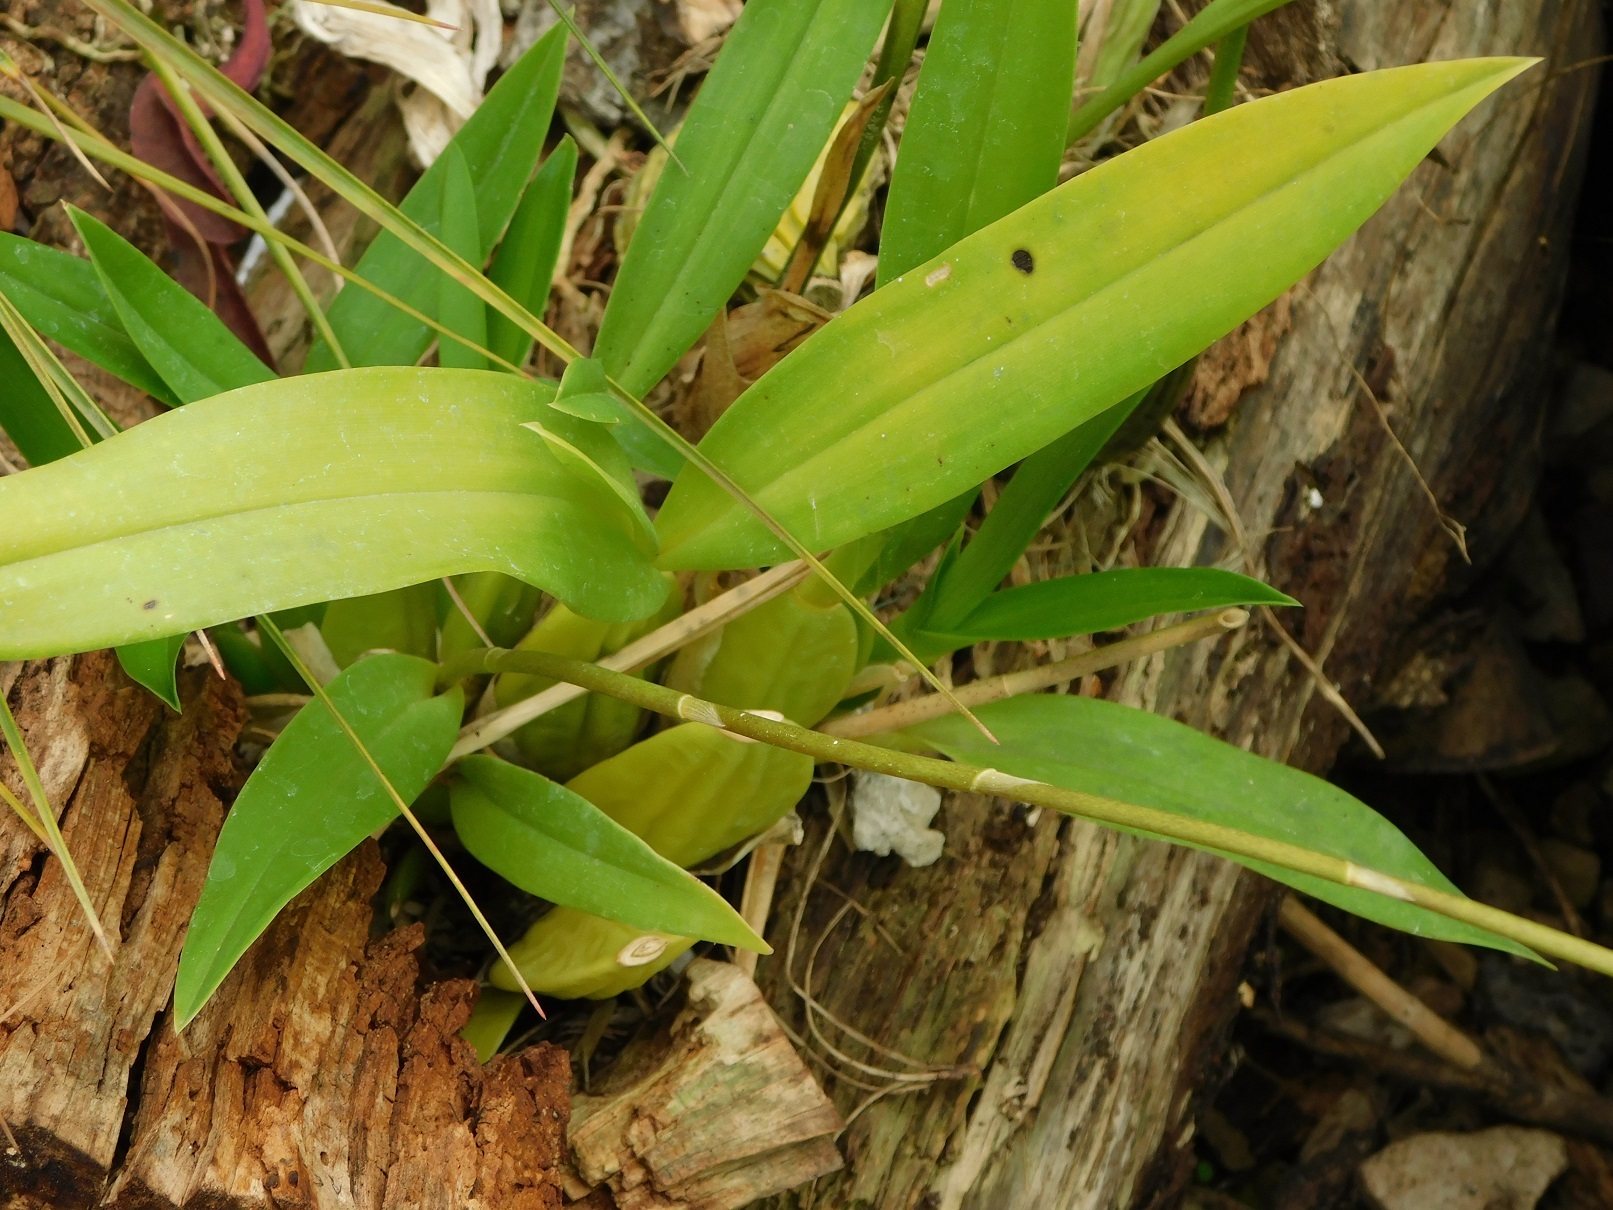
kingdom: Plantae
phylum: Tracheophyta
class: Liliopsida
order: Asparagales
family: Orchidaceae
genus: Brassia
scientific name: Brassia verrucosa
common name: Warty brassia
